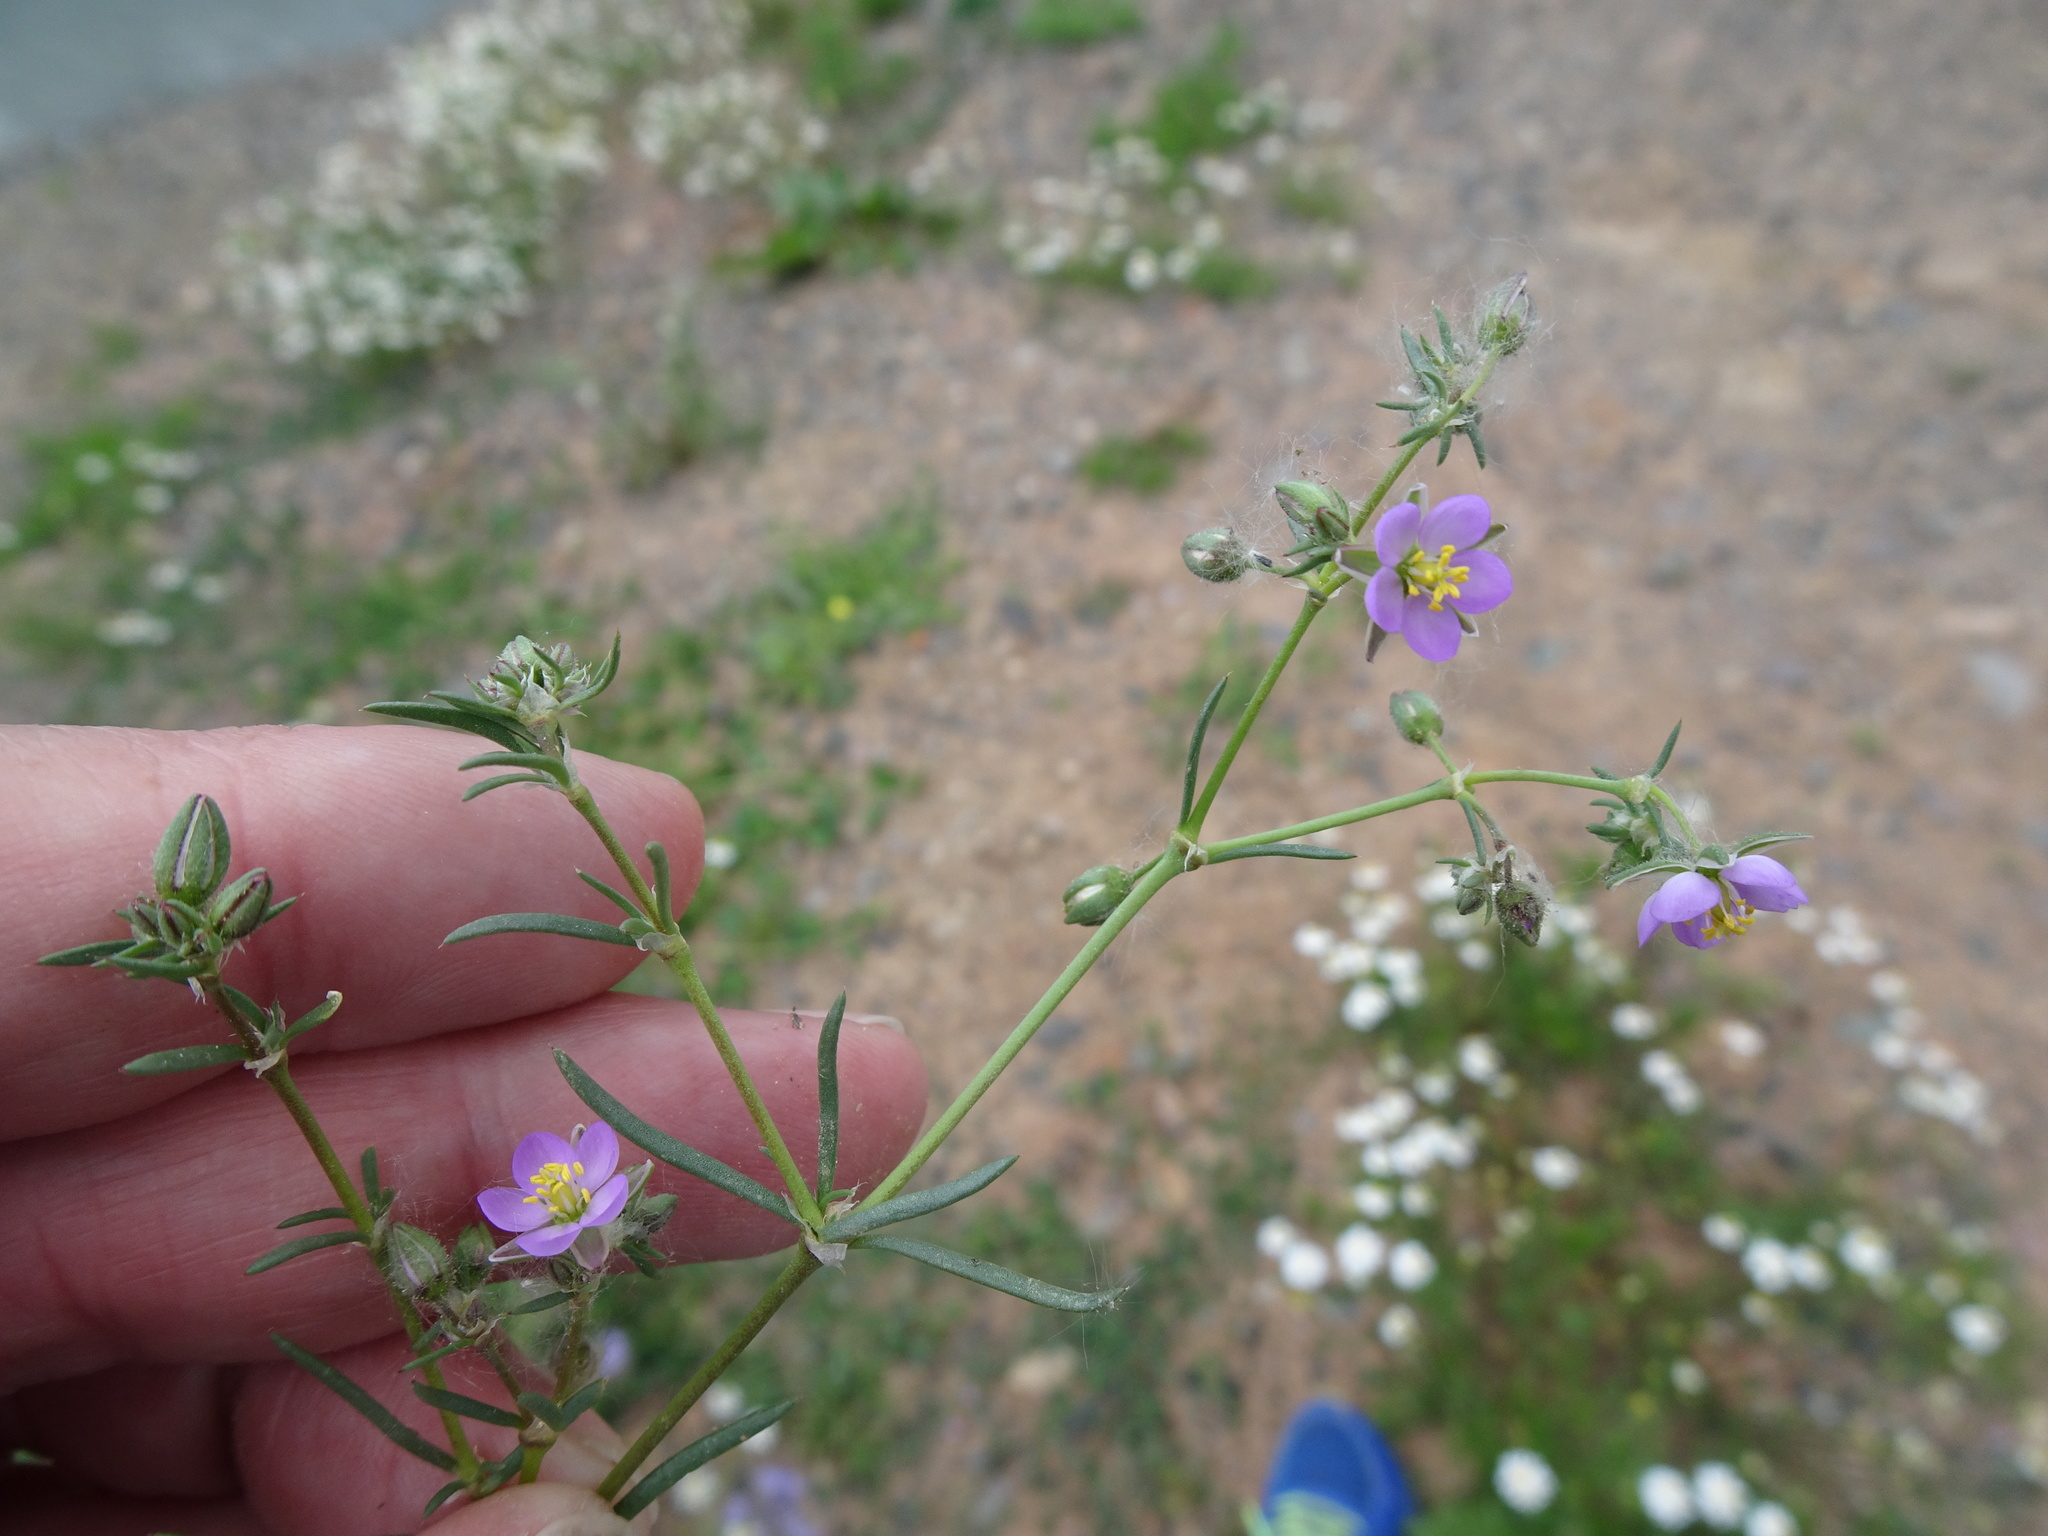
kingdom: Plantae
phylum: Tracheophyta
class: Magnoliopsida
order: Caryophyllales
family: Caryophyllaceae
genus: Spergularia
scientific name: Spergularia rubra
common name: Red sand-spurrey
